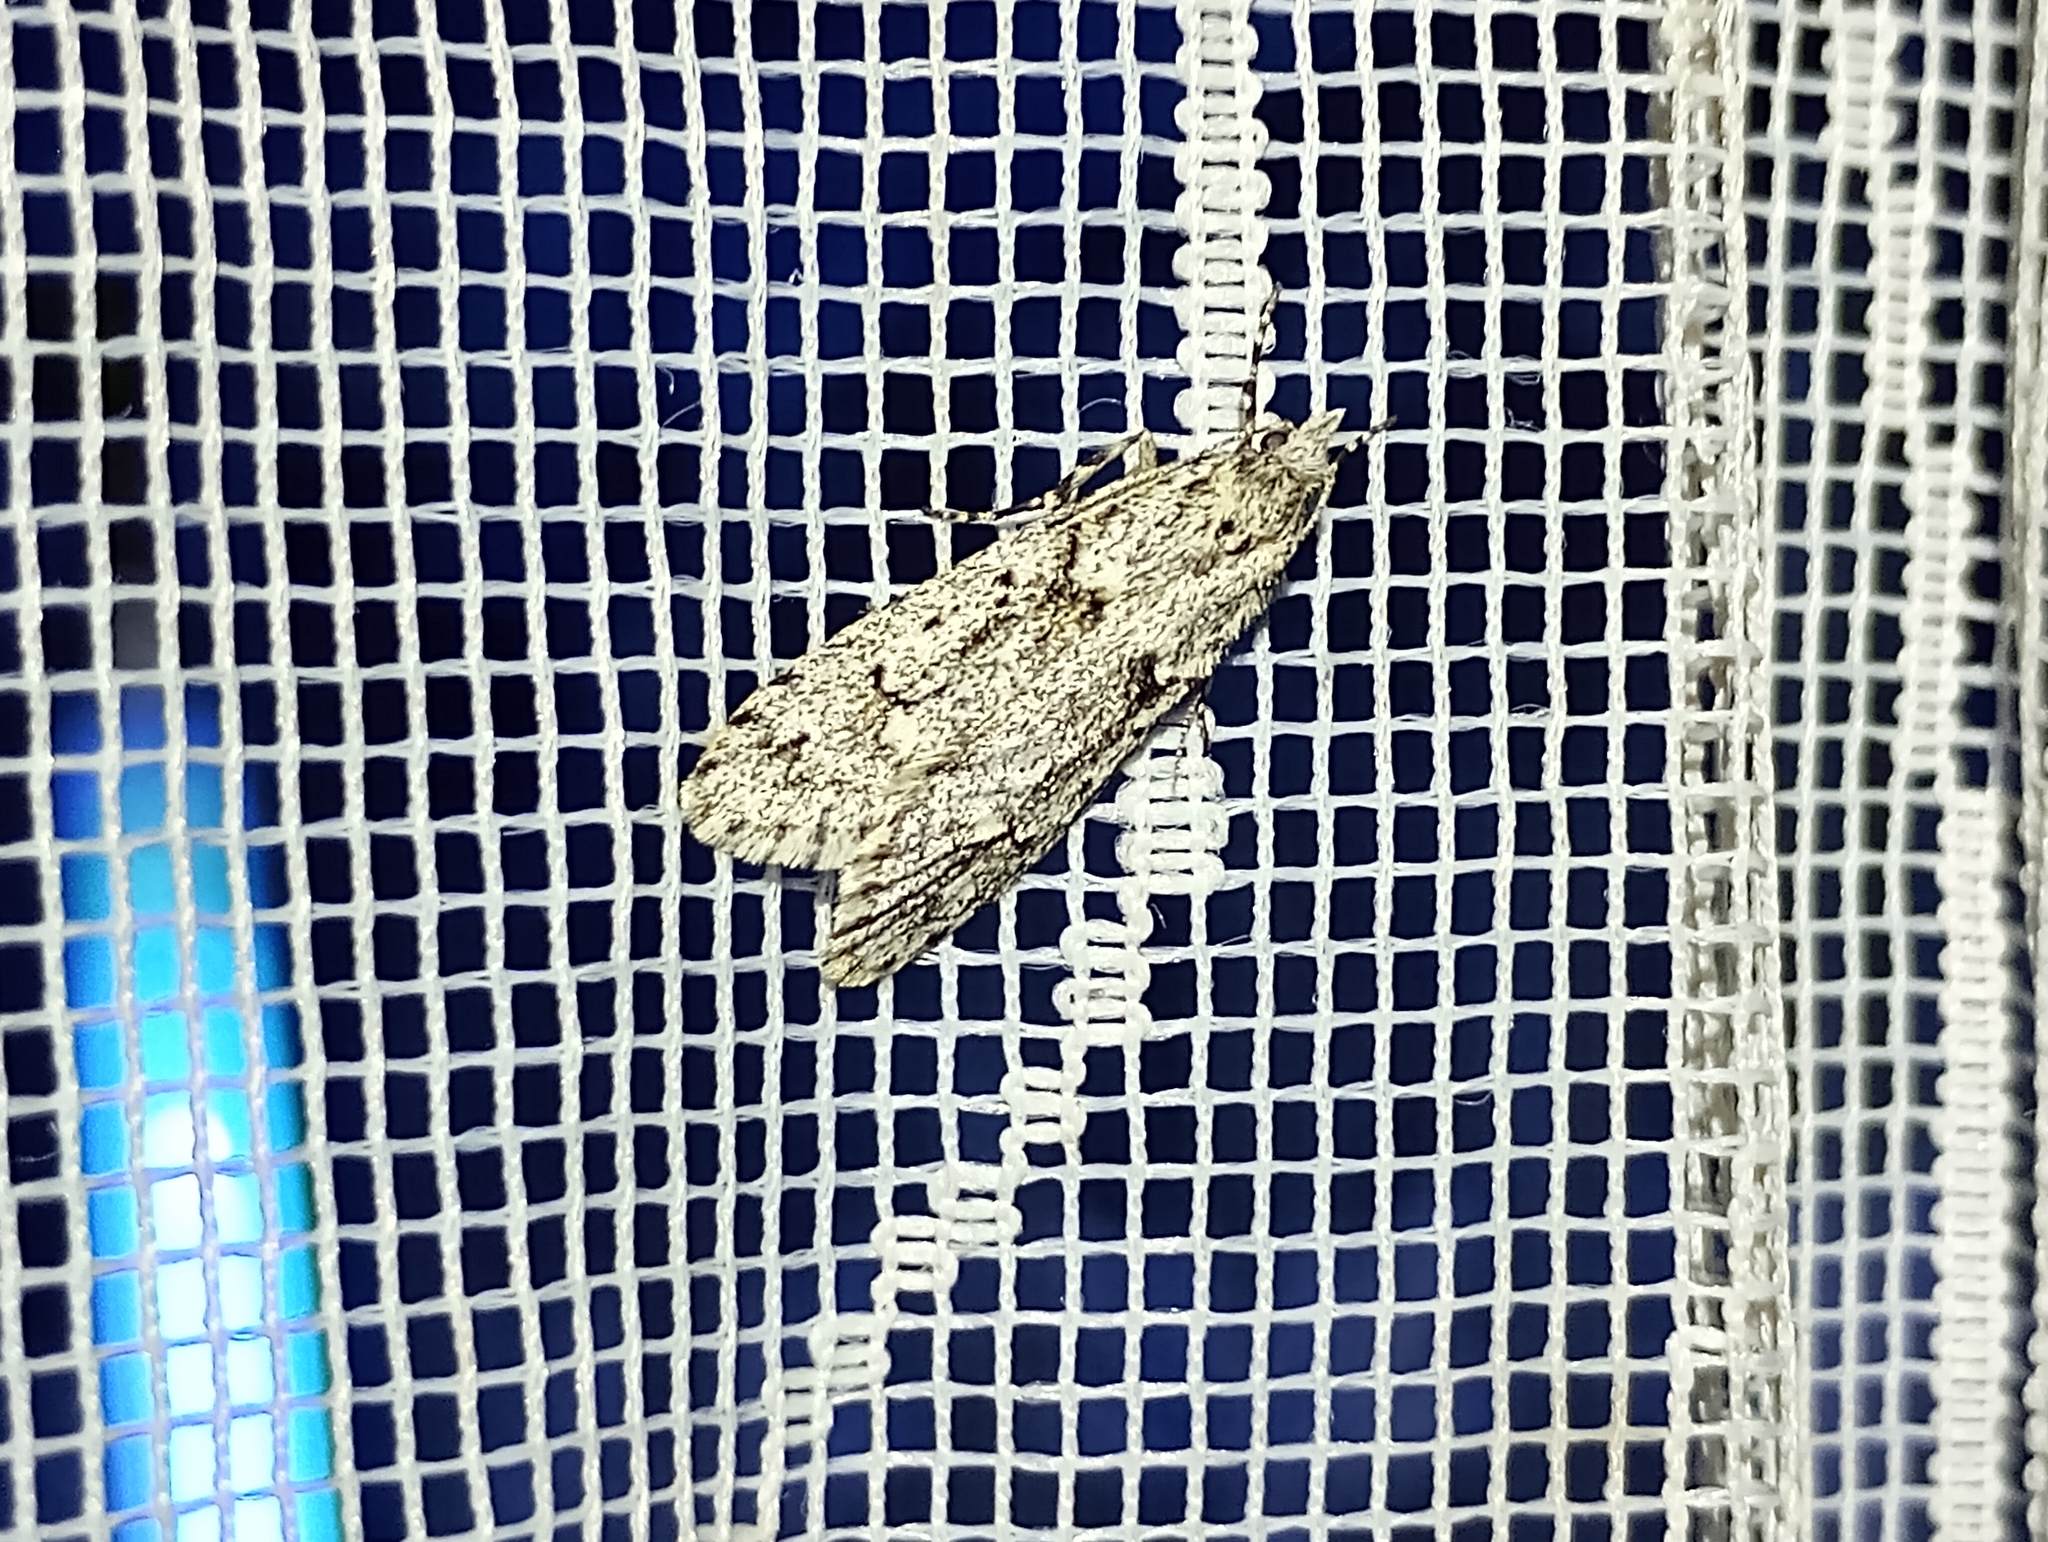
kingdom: Animalia
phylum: Arthropoda
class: Insecta
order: Lepidoptera
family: Lypusidae
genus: Diurnea
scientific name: Diurnea fagella
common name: March tubic
